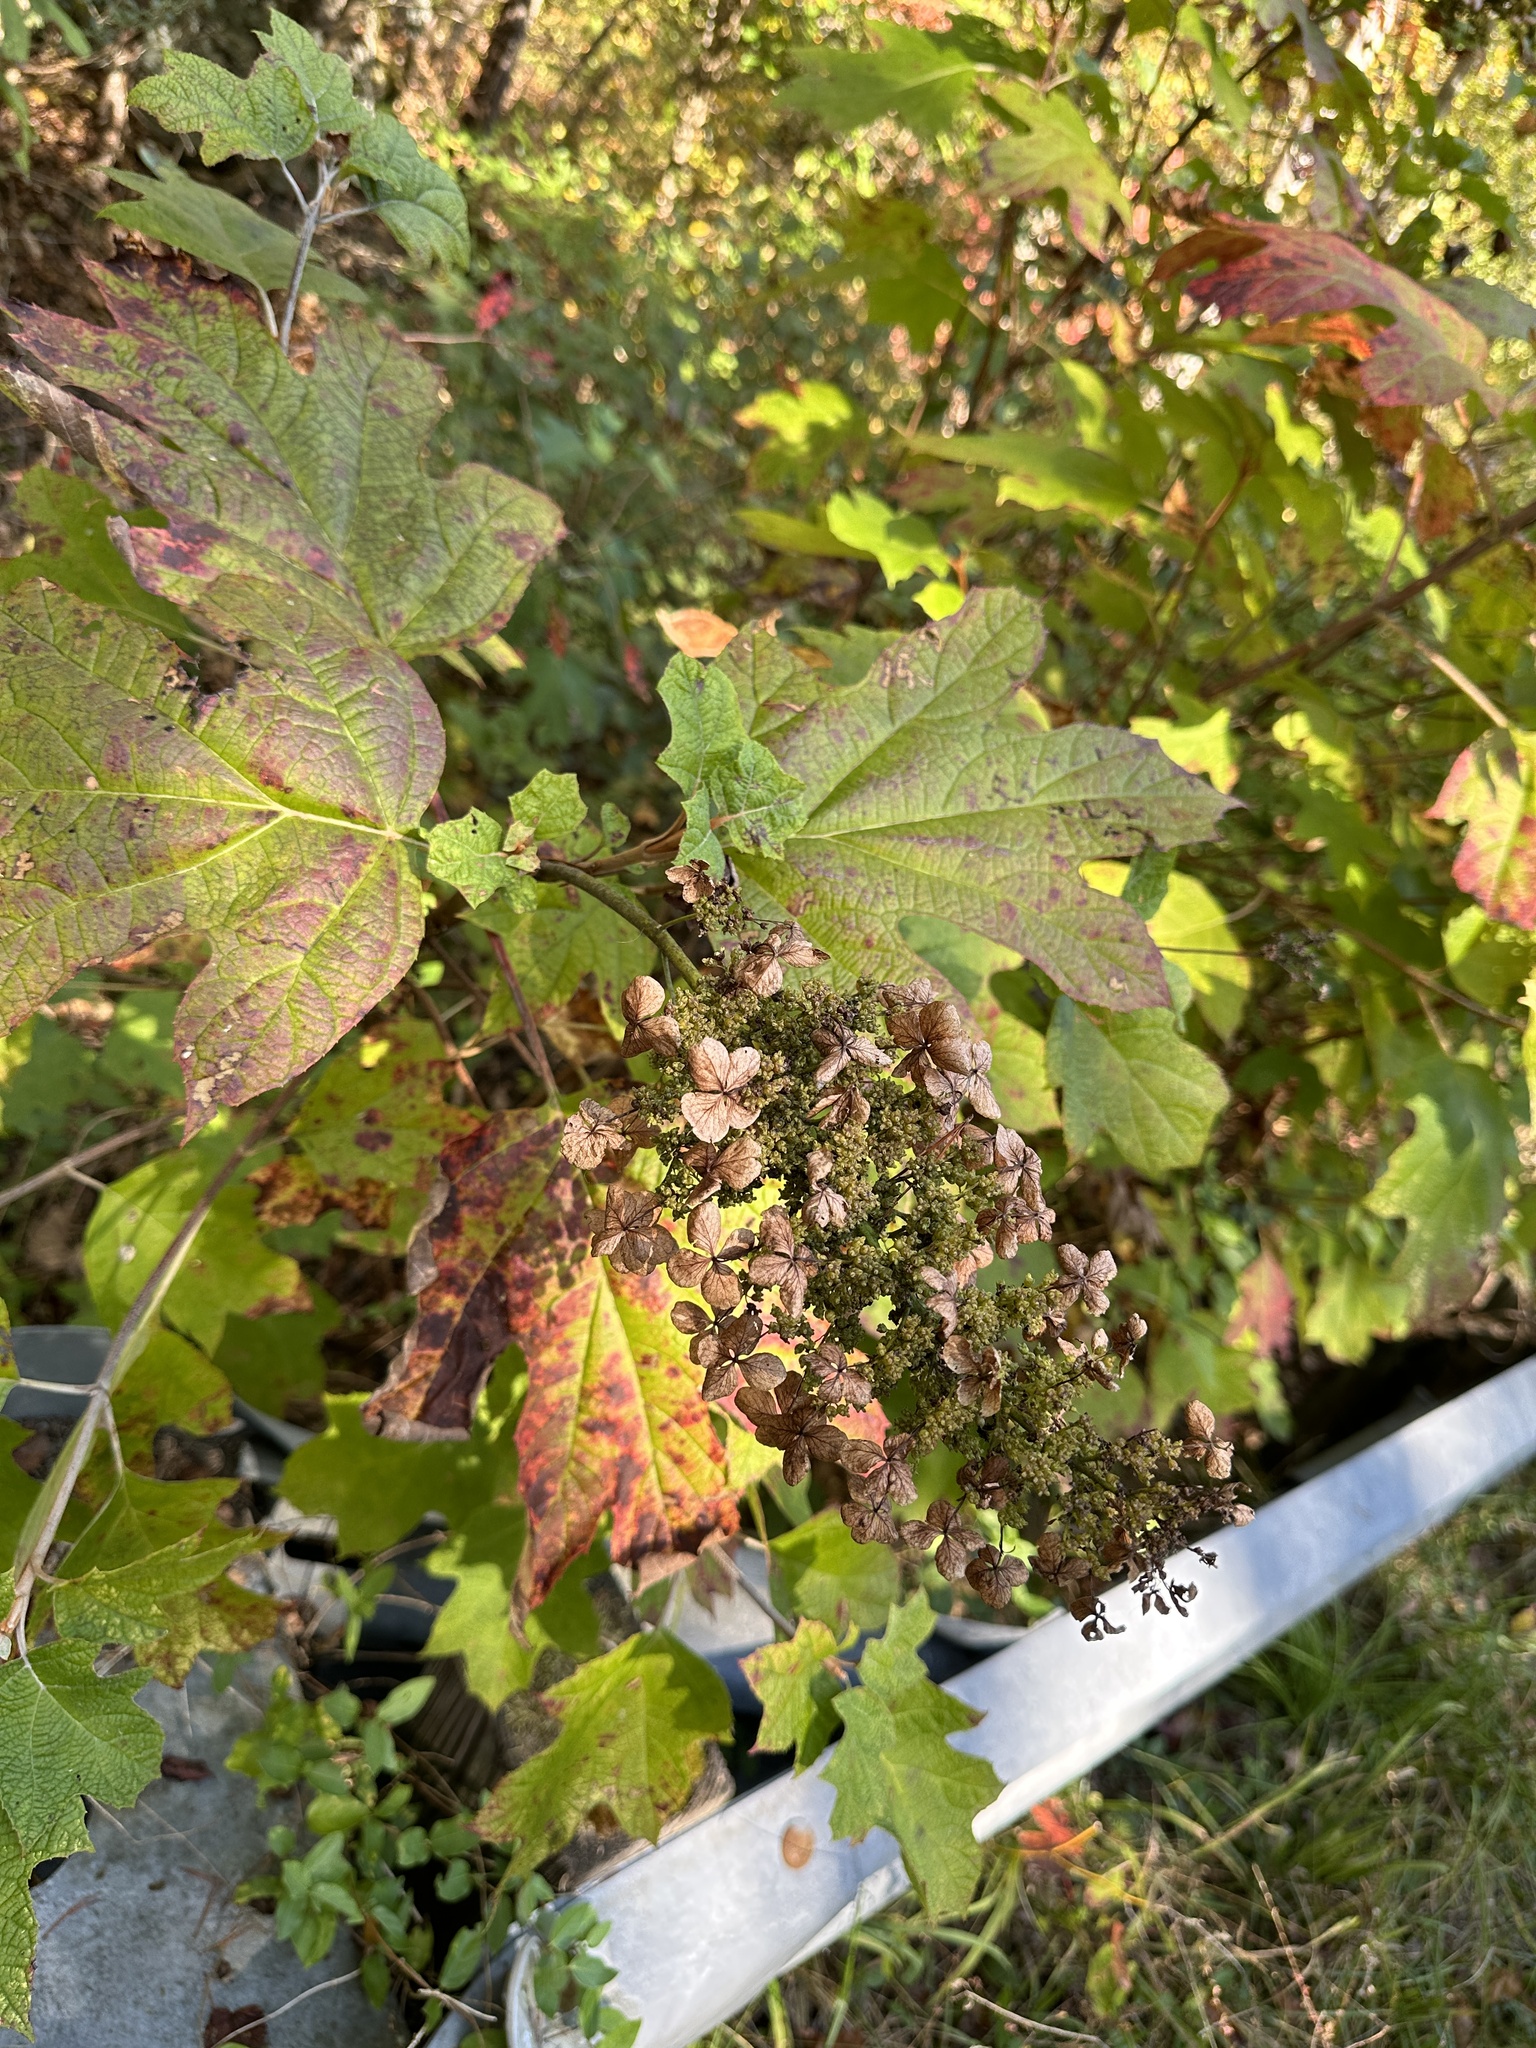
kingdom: Plantae
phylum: Tracheophyta
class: Magnoliopsida
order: Cornales
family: Hydrangeaceae
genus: Hydrangea
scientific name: Hydrangea quercifolia
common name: Oak-leaf hydrangea
